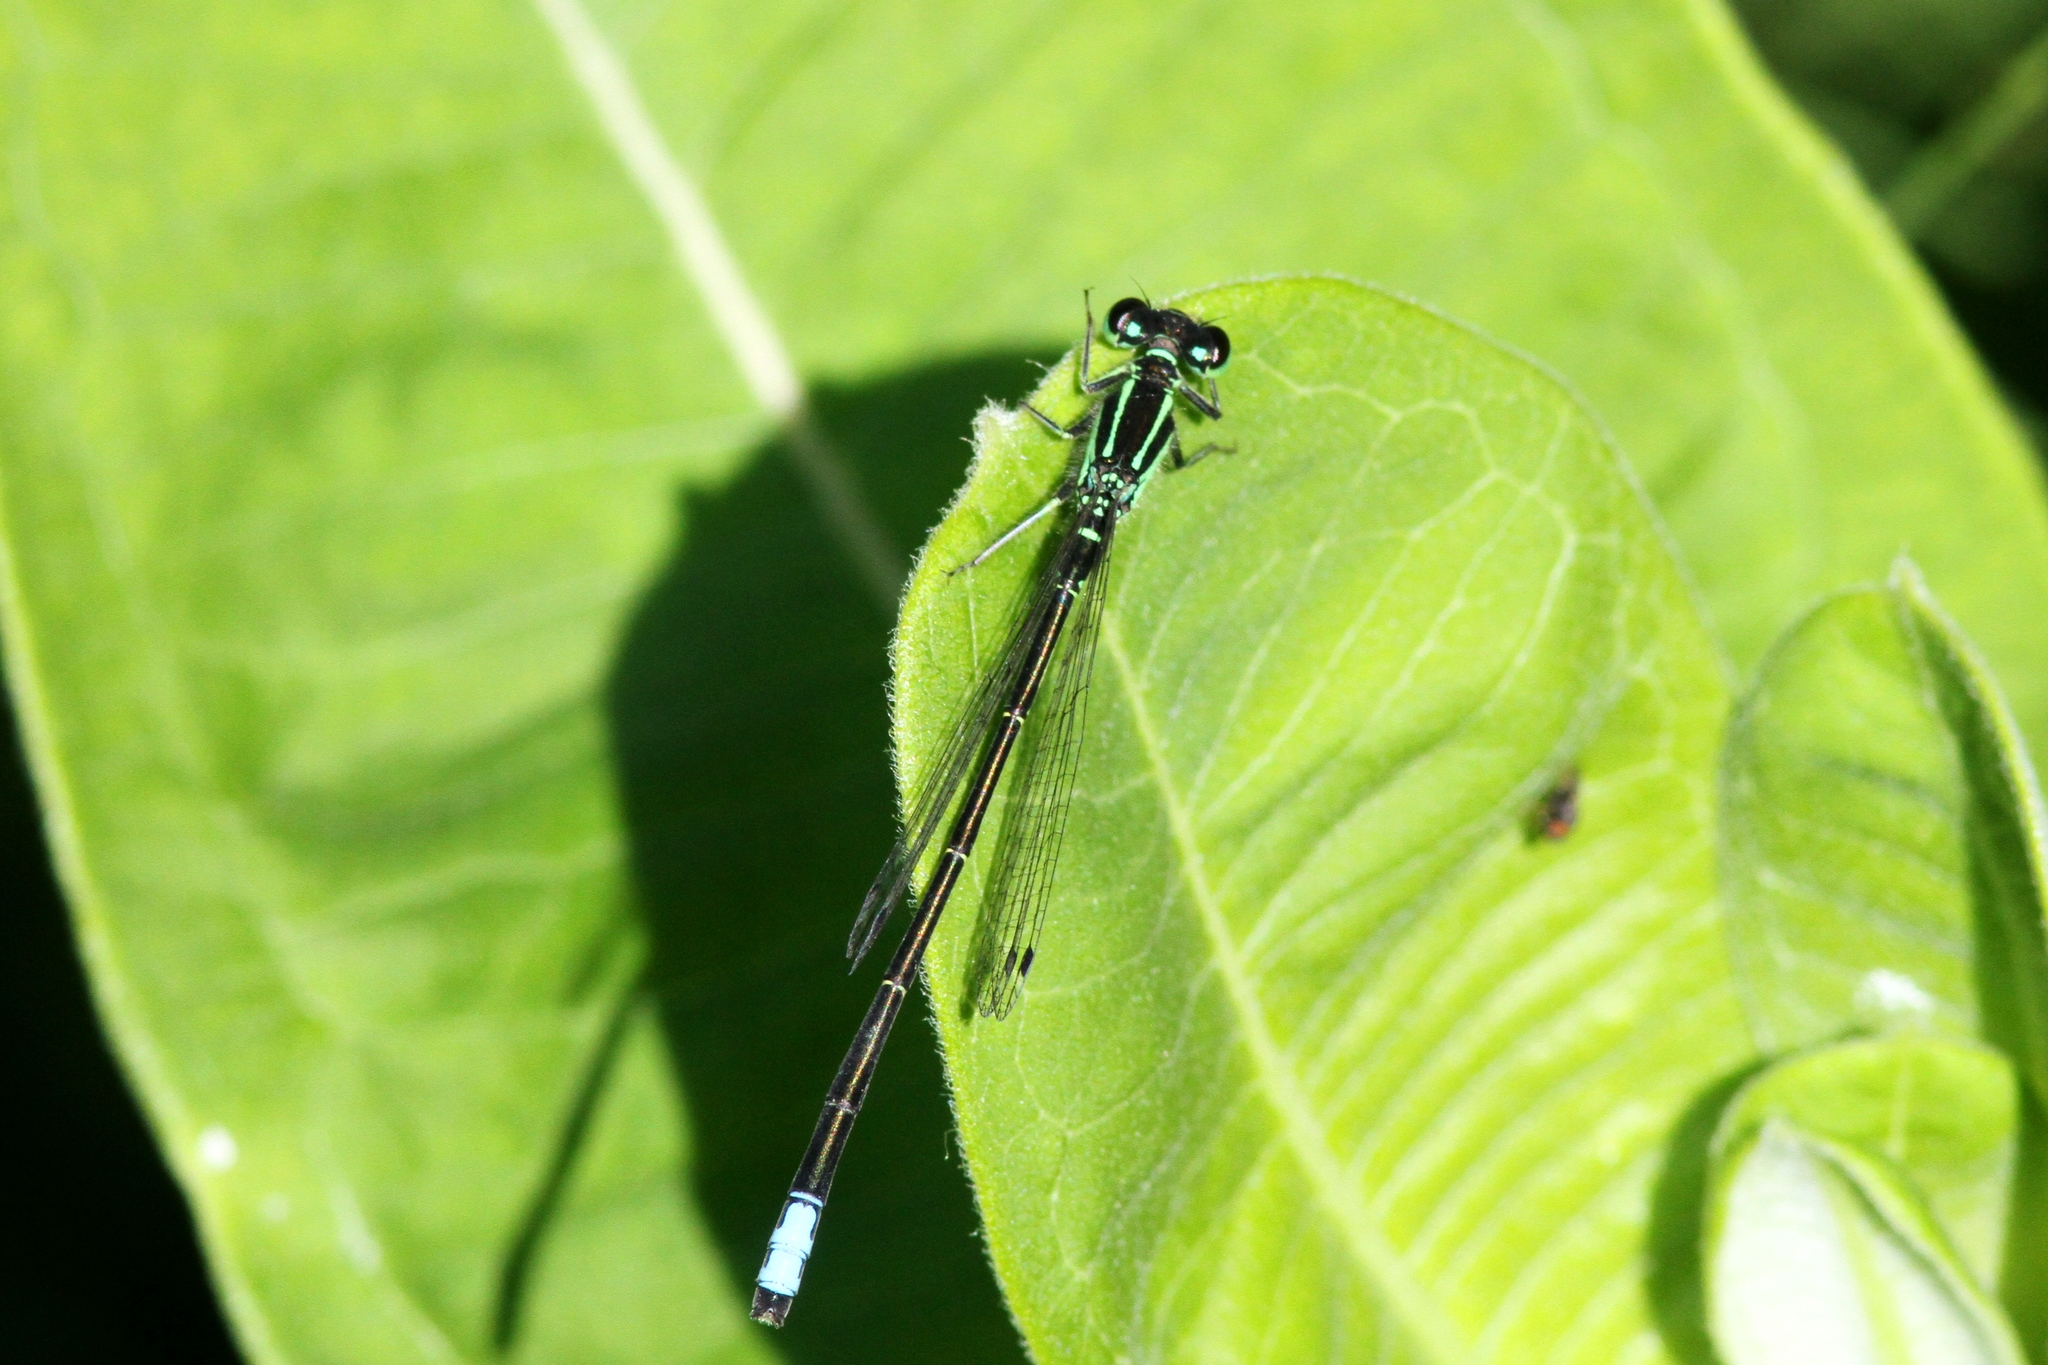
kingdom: Animalia
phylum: Arthropoda
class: Insecta
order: Odonata
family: Coenagrionidae
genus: Ischnura
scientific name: Ischnura verticalis
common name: Eastern forktail
